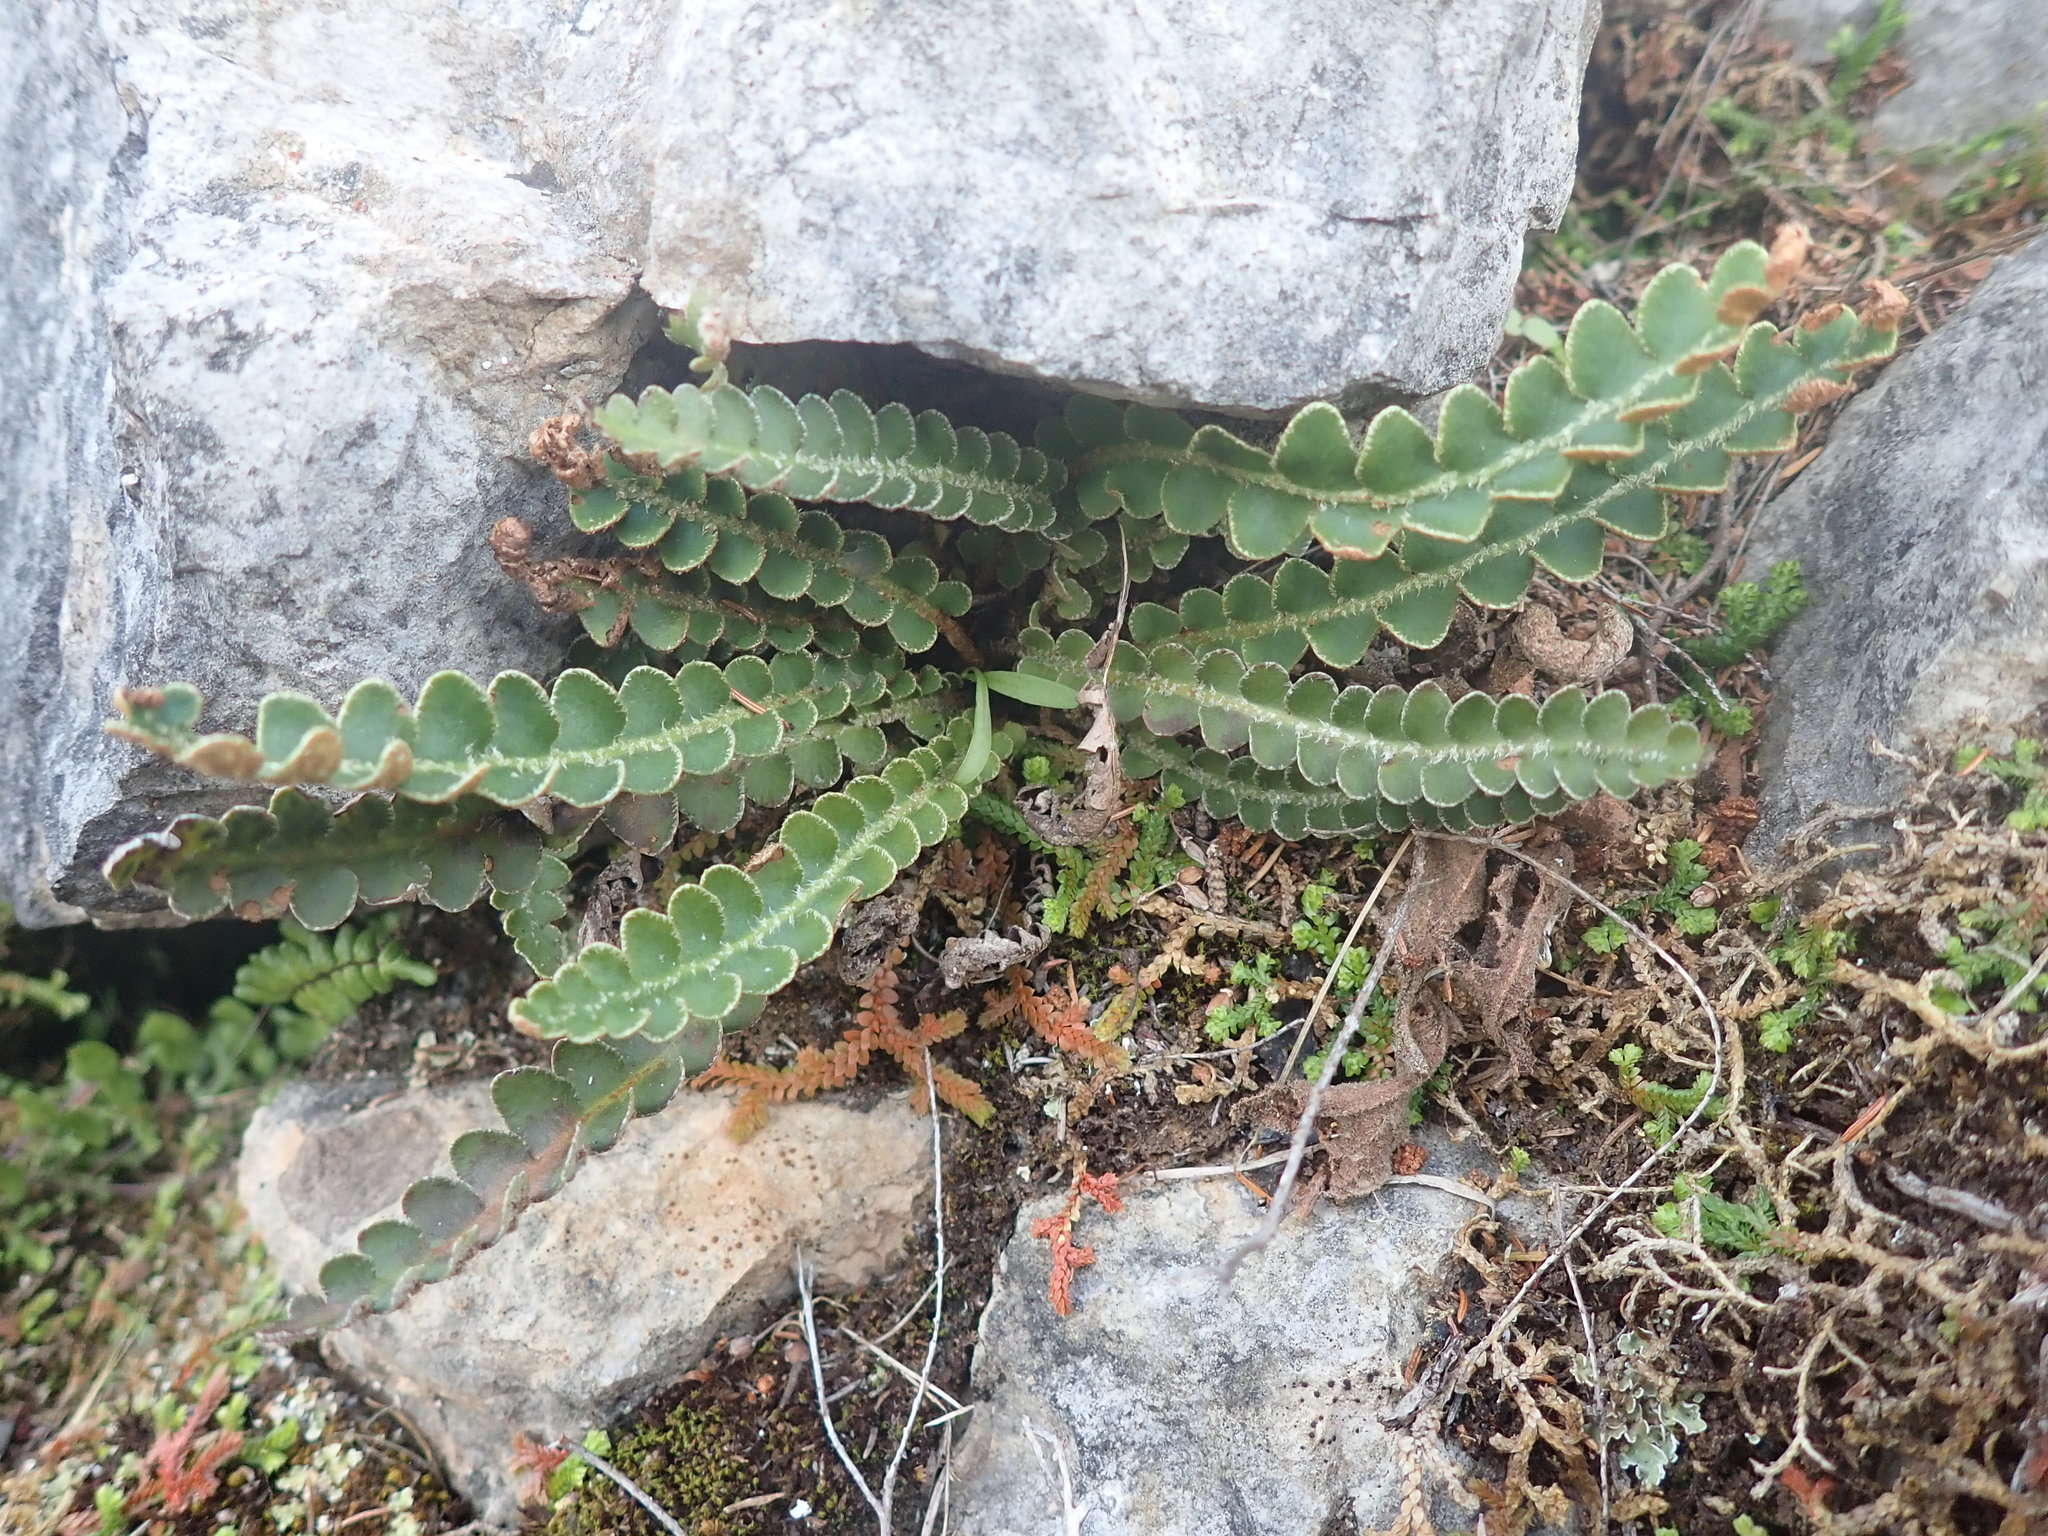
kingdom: Plantae
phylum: Tracheophyta
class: Polypodiopsida
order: Polypodiales
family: Aspleniaceae
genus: Asplenium
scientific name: Asplenium ceterach
